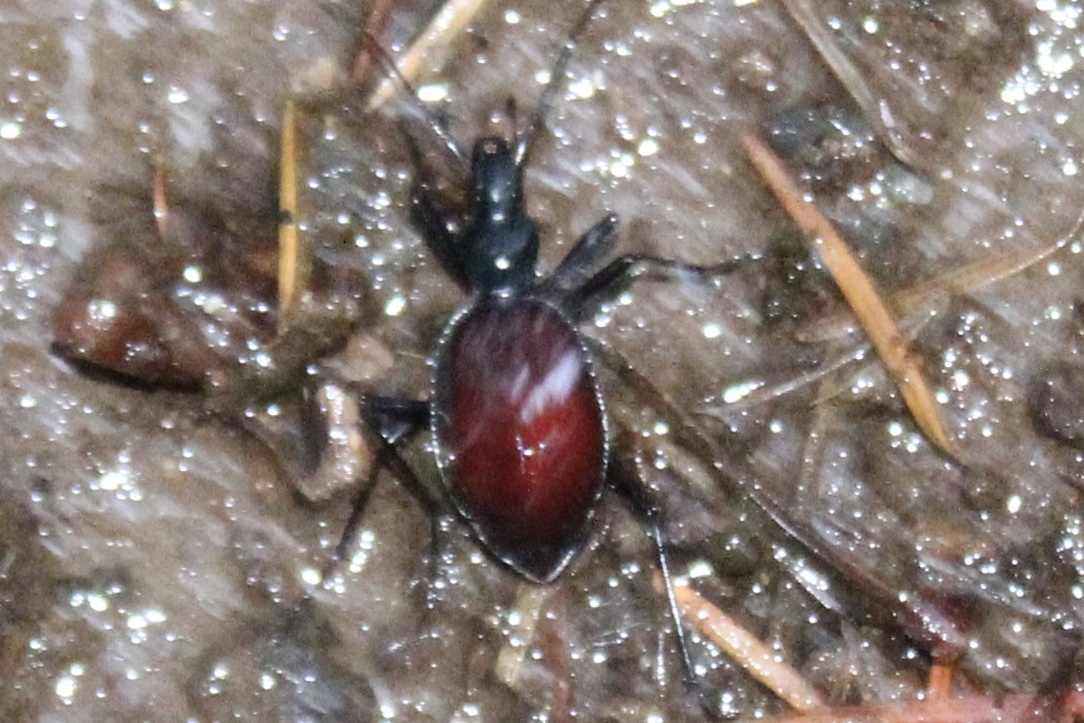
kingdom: Animalia
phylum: Arthropoda
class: Insecta
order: Coleoptera
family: Carabidae
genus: Scaphinotus
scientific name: Scaphinotus angusticollis
